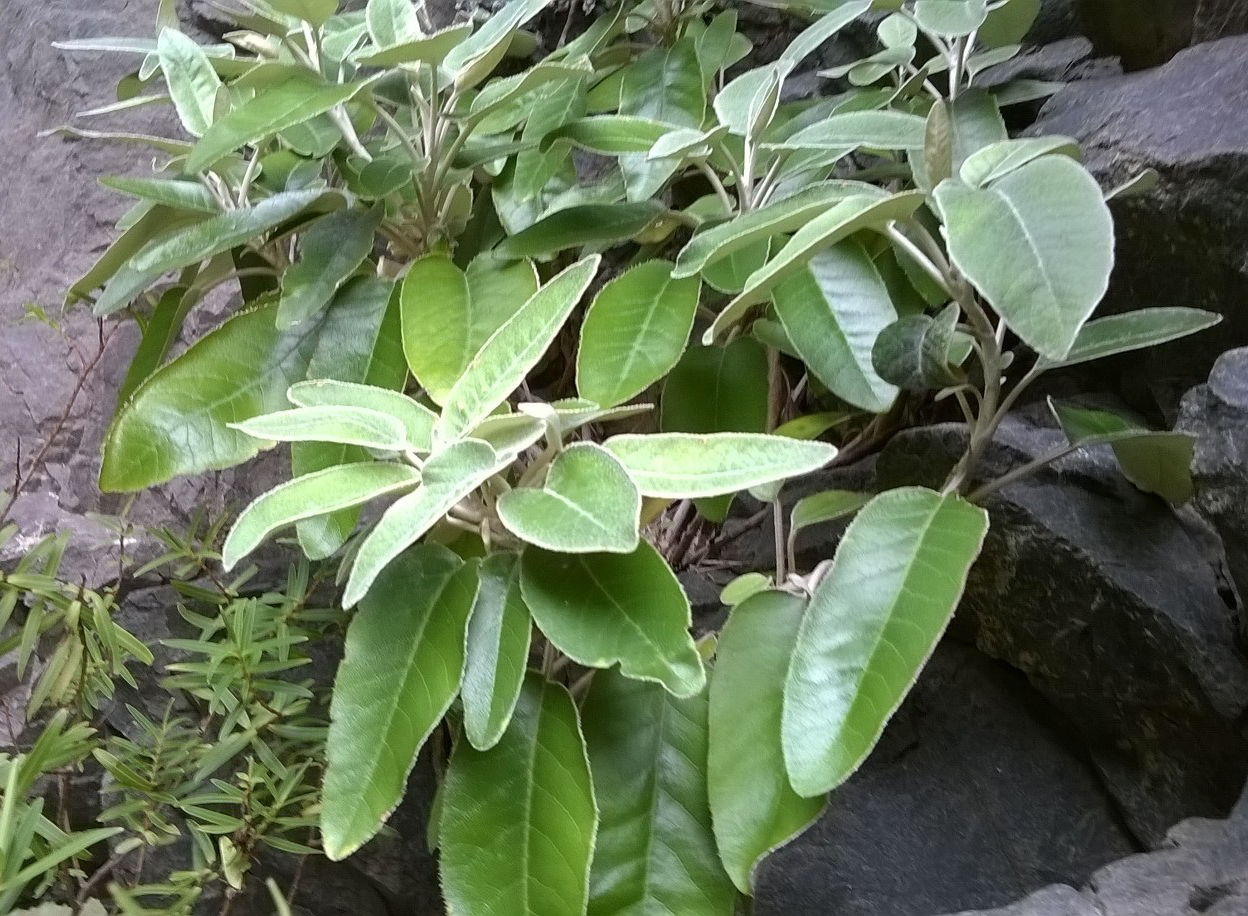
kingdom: Plantae
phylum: Tracheophyta
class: Magnoliopsida
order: Asterales
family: Asteraceae
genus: Brachyglottis
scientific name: Brachyglottis greyi
